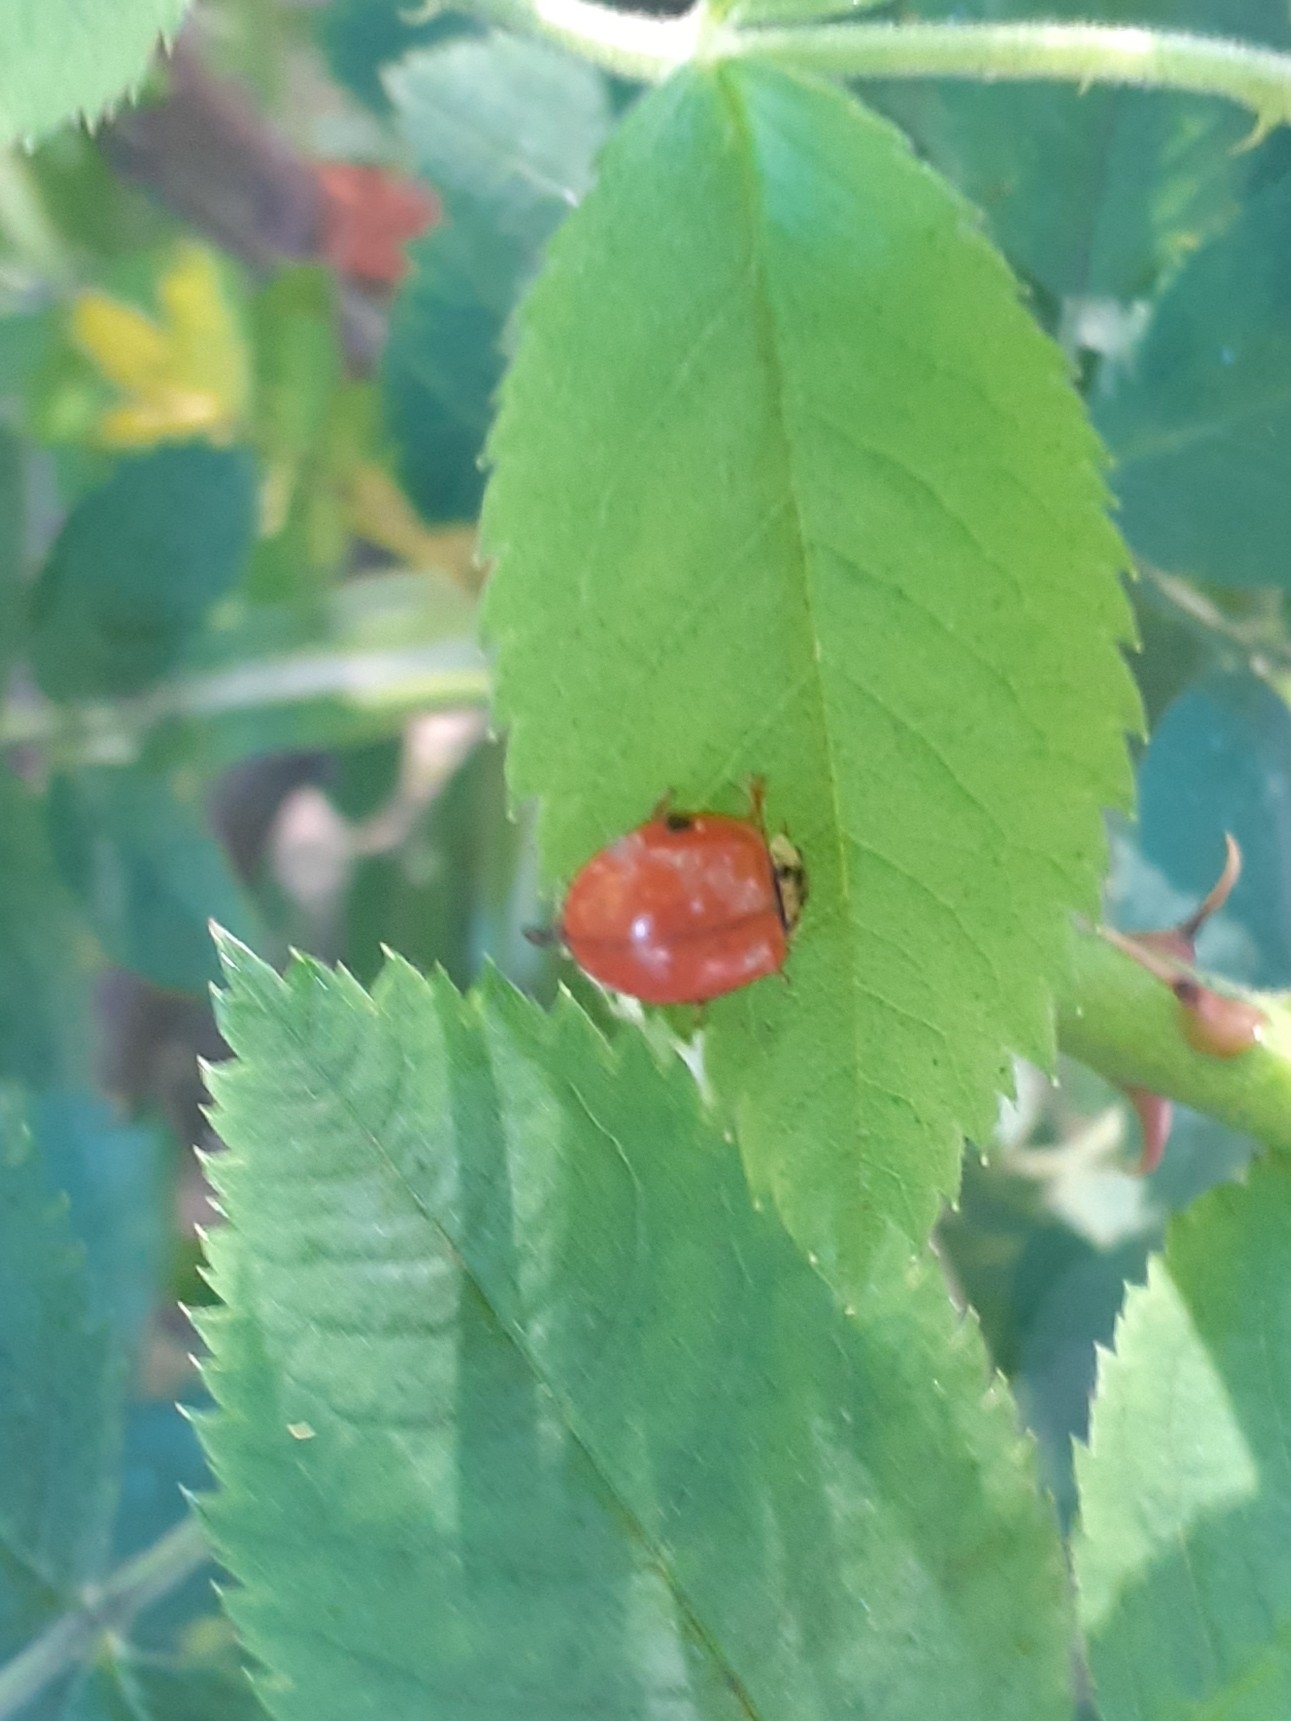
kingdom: Animalia
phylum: Arthropoda
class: Insecta
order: Coleoptera
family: Coccinellidae
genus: Harmonia
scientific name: Harmonia axyridis
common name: Harlequin ladybird
